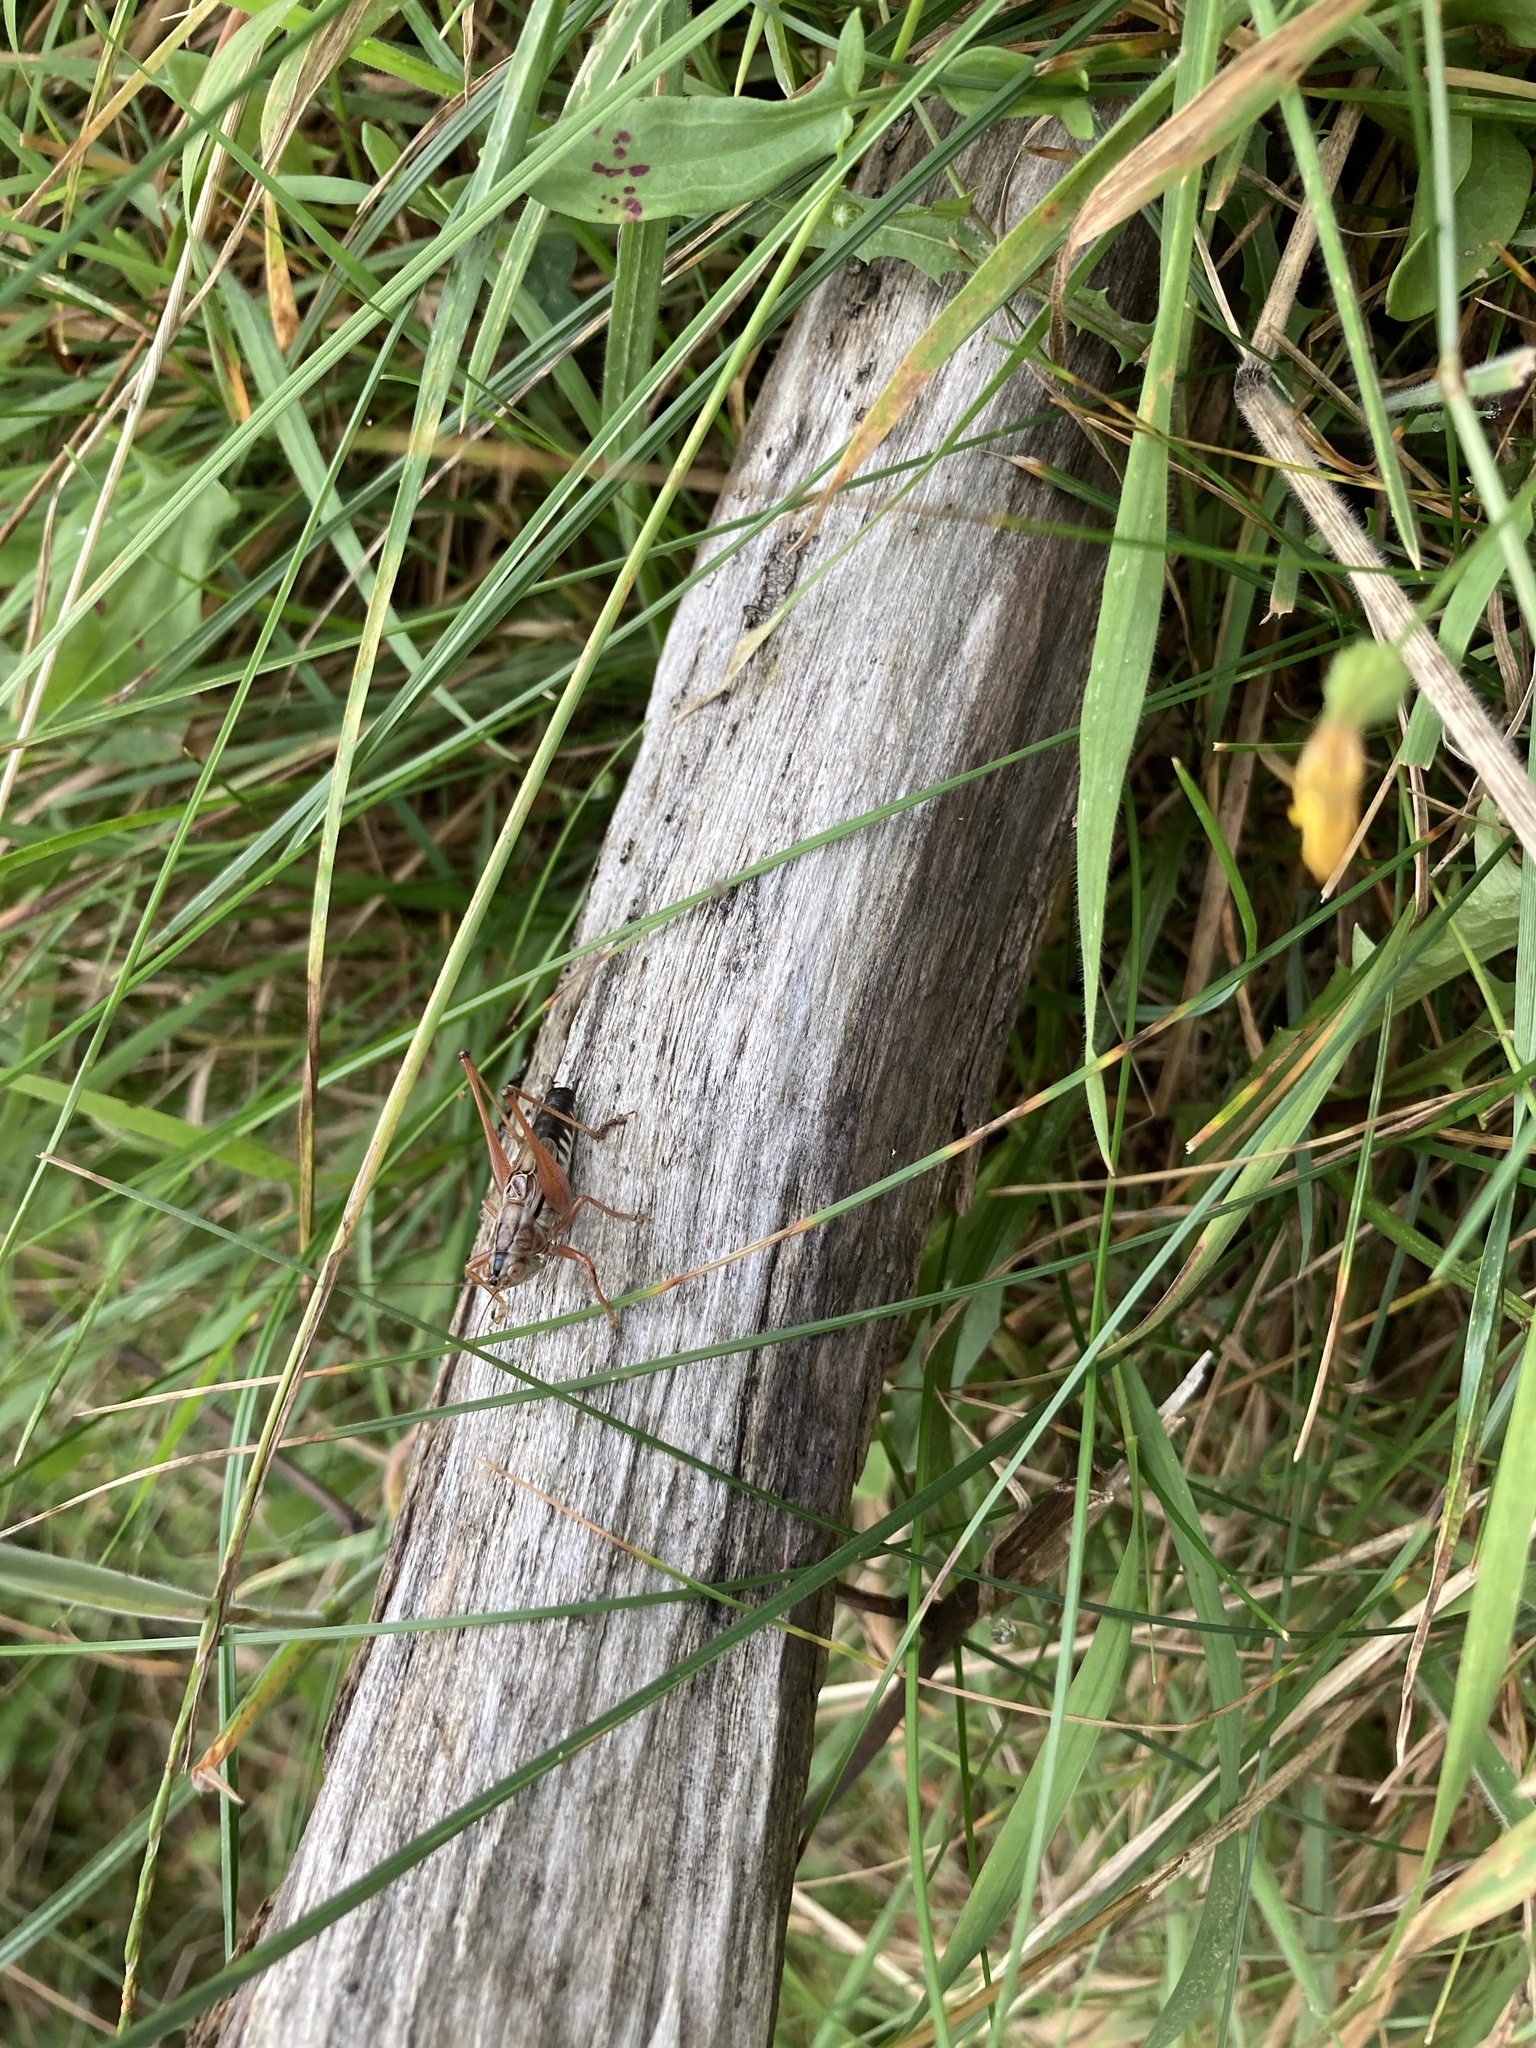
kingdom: Animalia
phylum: Arthropoda
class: Insecta
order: Orthoptera
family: Tettigoniidae
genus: Conocephalus
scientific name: Conocephalus semivittatus
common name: Blackish meadow katydid
